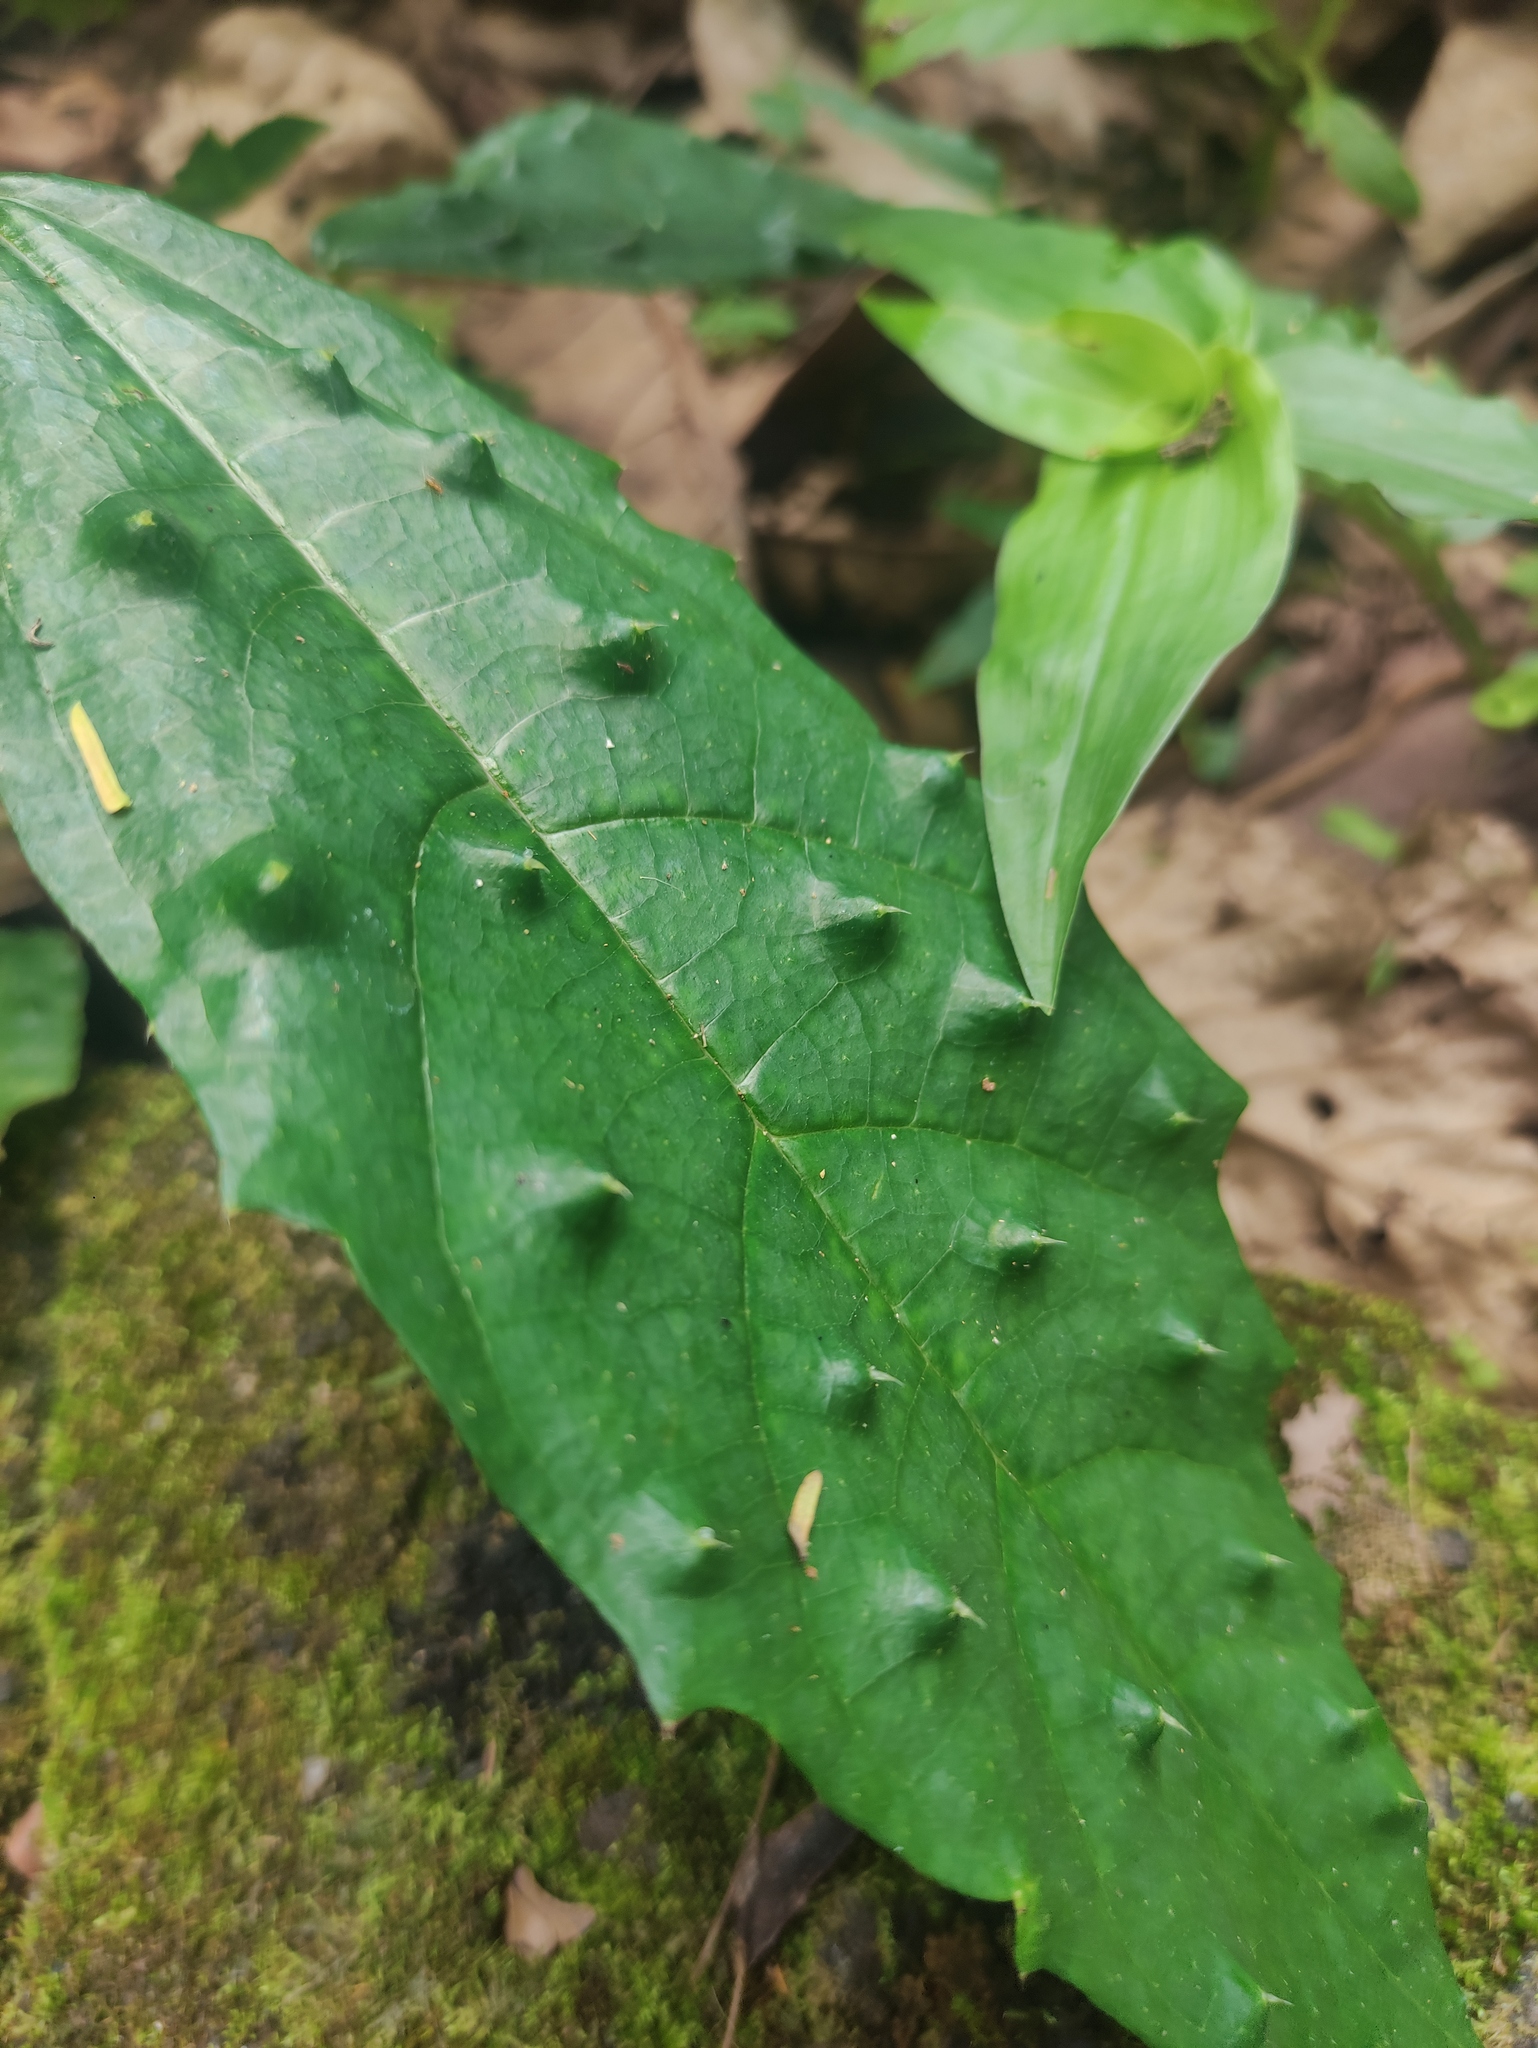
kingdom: Plantae
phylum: Tracheophyta
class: Magnoliopsida
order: Rosales
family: Urticaceae
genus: Urera
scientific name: Urera nitida
